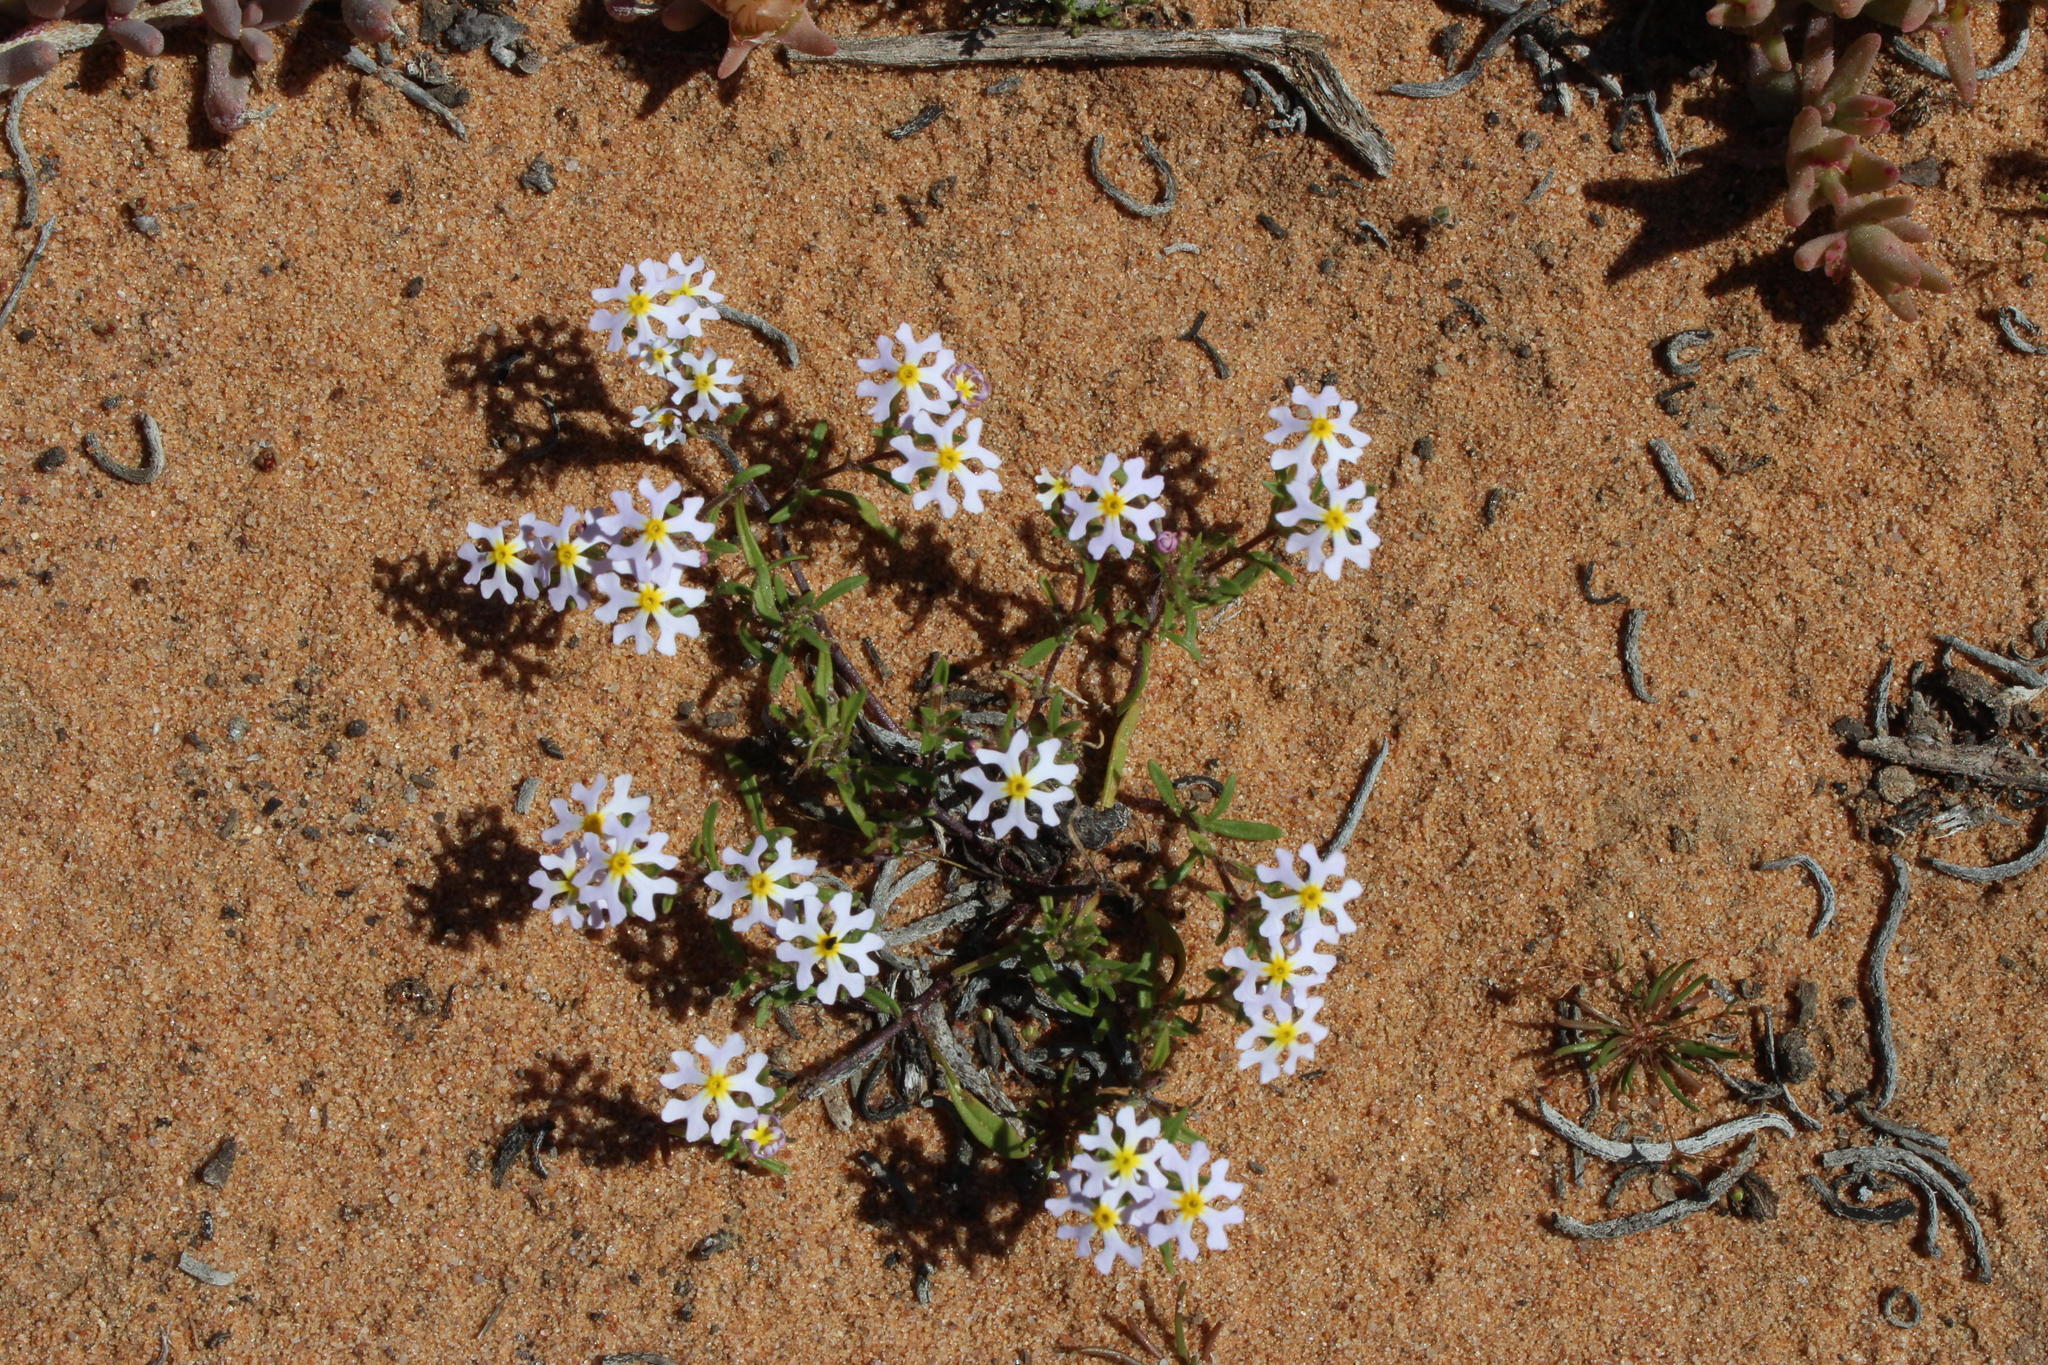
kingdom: Plantae
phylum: Tracheophyta
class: Magnoliopsida
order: Lamiales
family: Scrophulariaceae
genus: Zaluzianskya
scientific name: Zaluzianskya affinis
